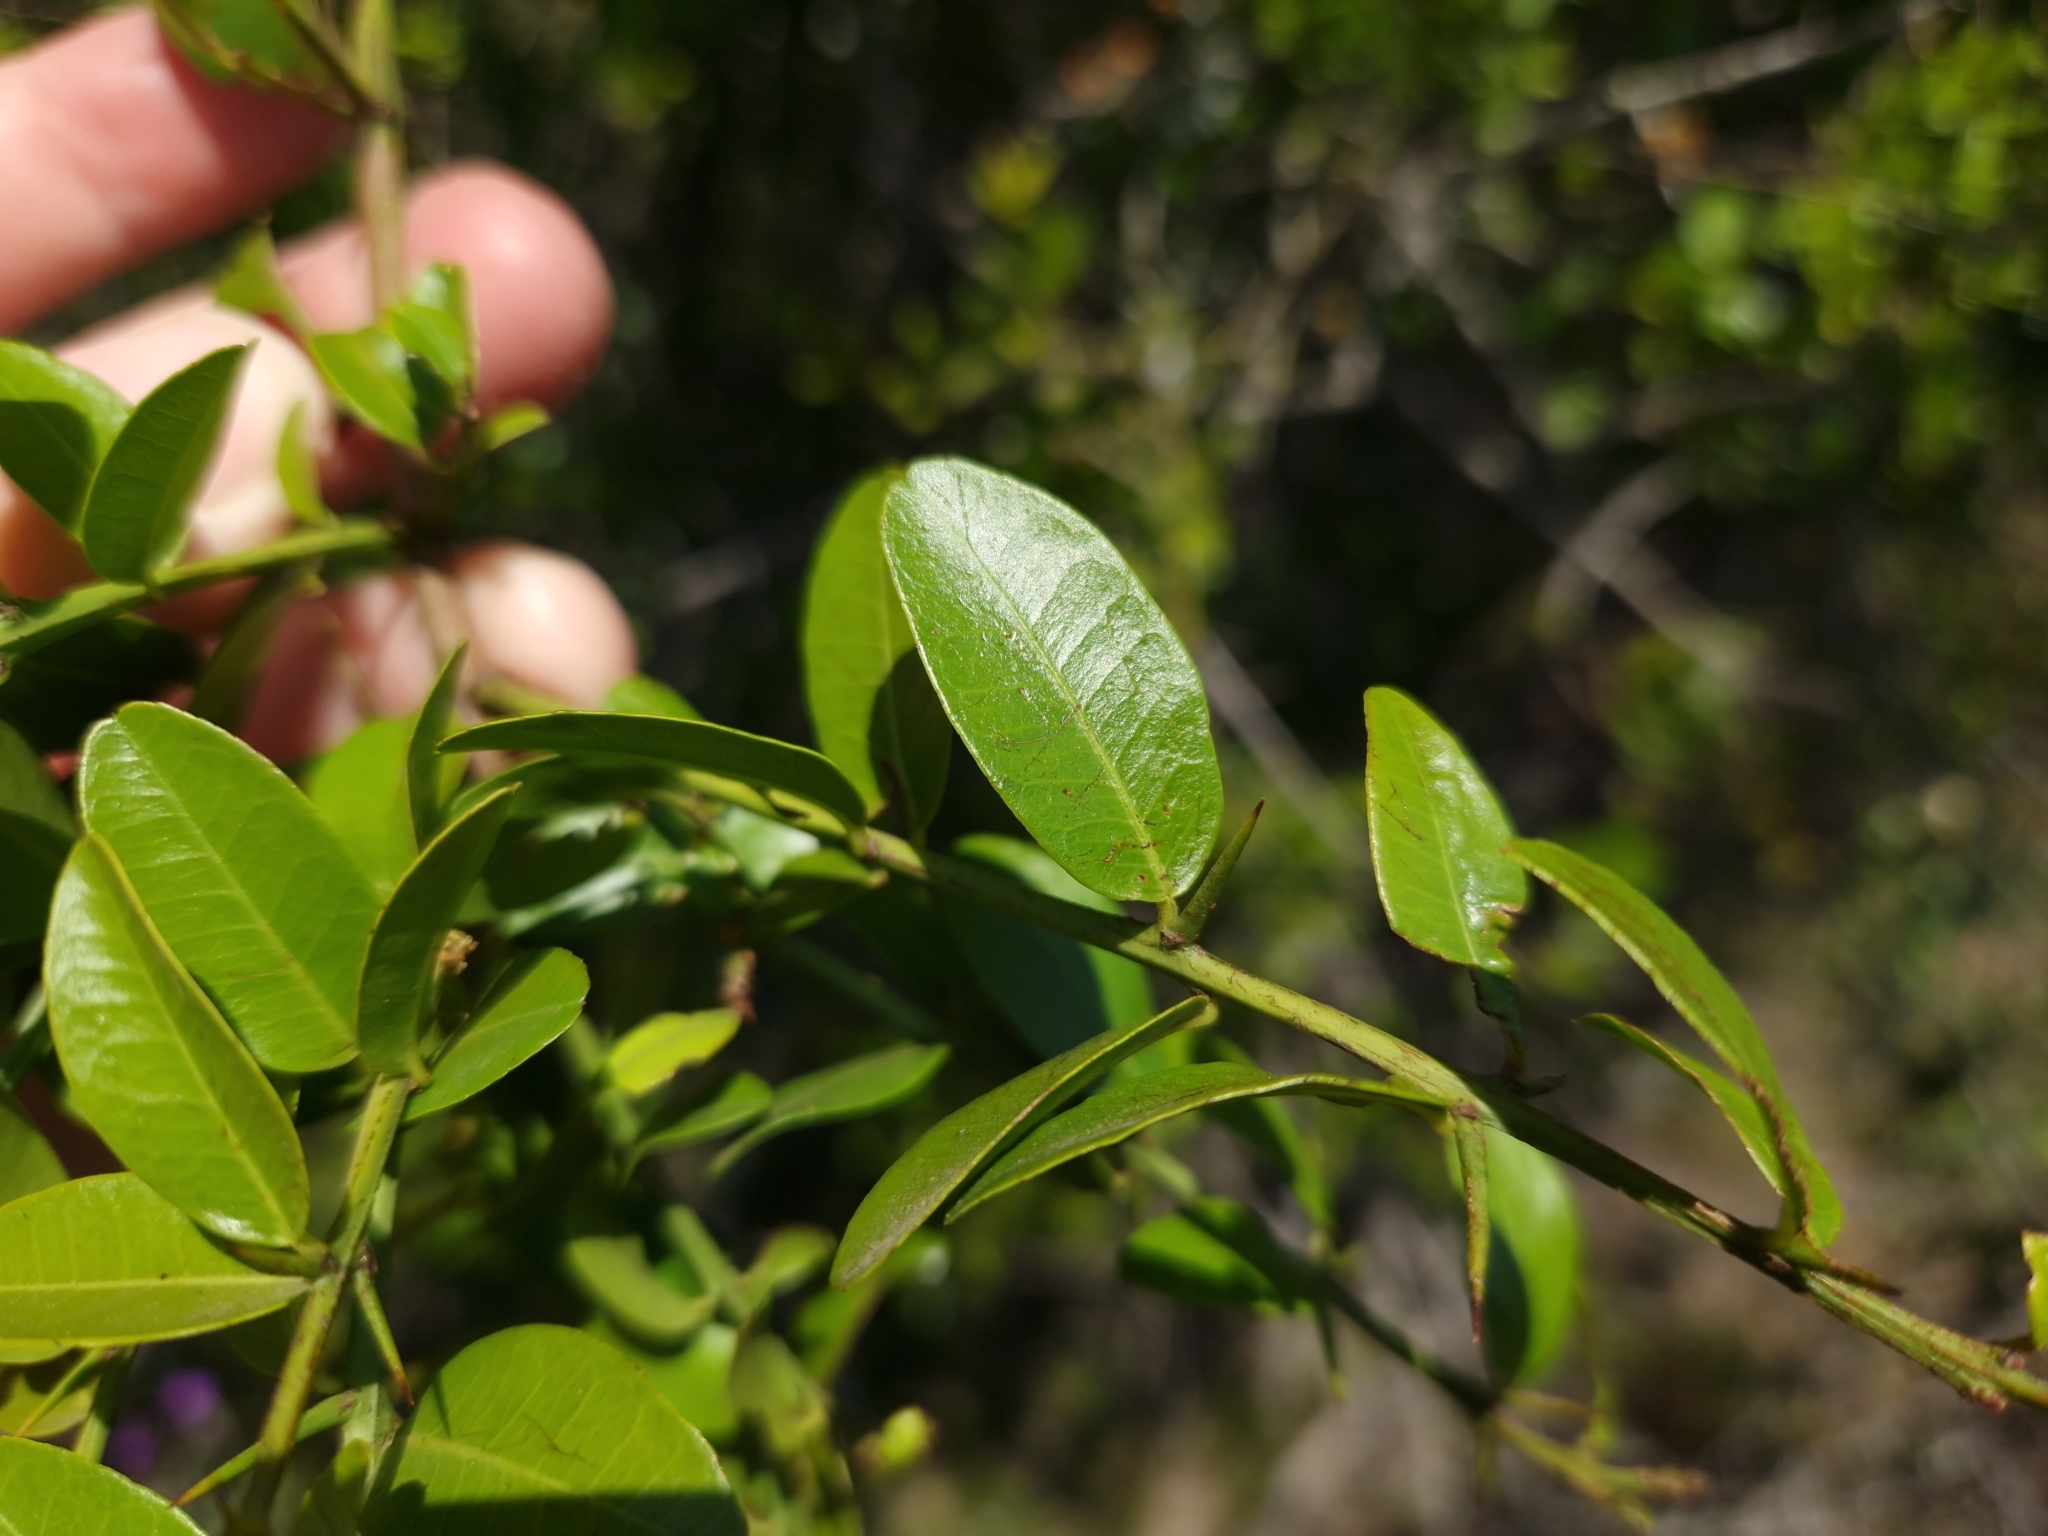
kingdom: Plantae
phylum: Tracheophyta
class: Magnoliopsida
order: Rosales
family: Rhamnaceae
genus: Scutia
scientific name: Scutia buxifolia
